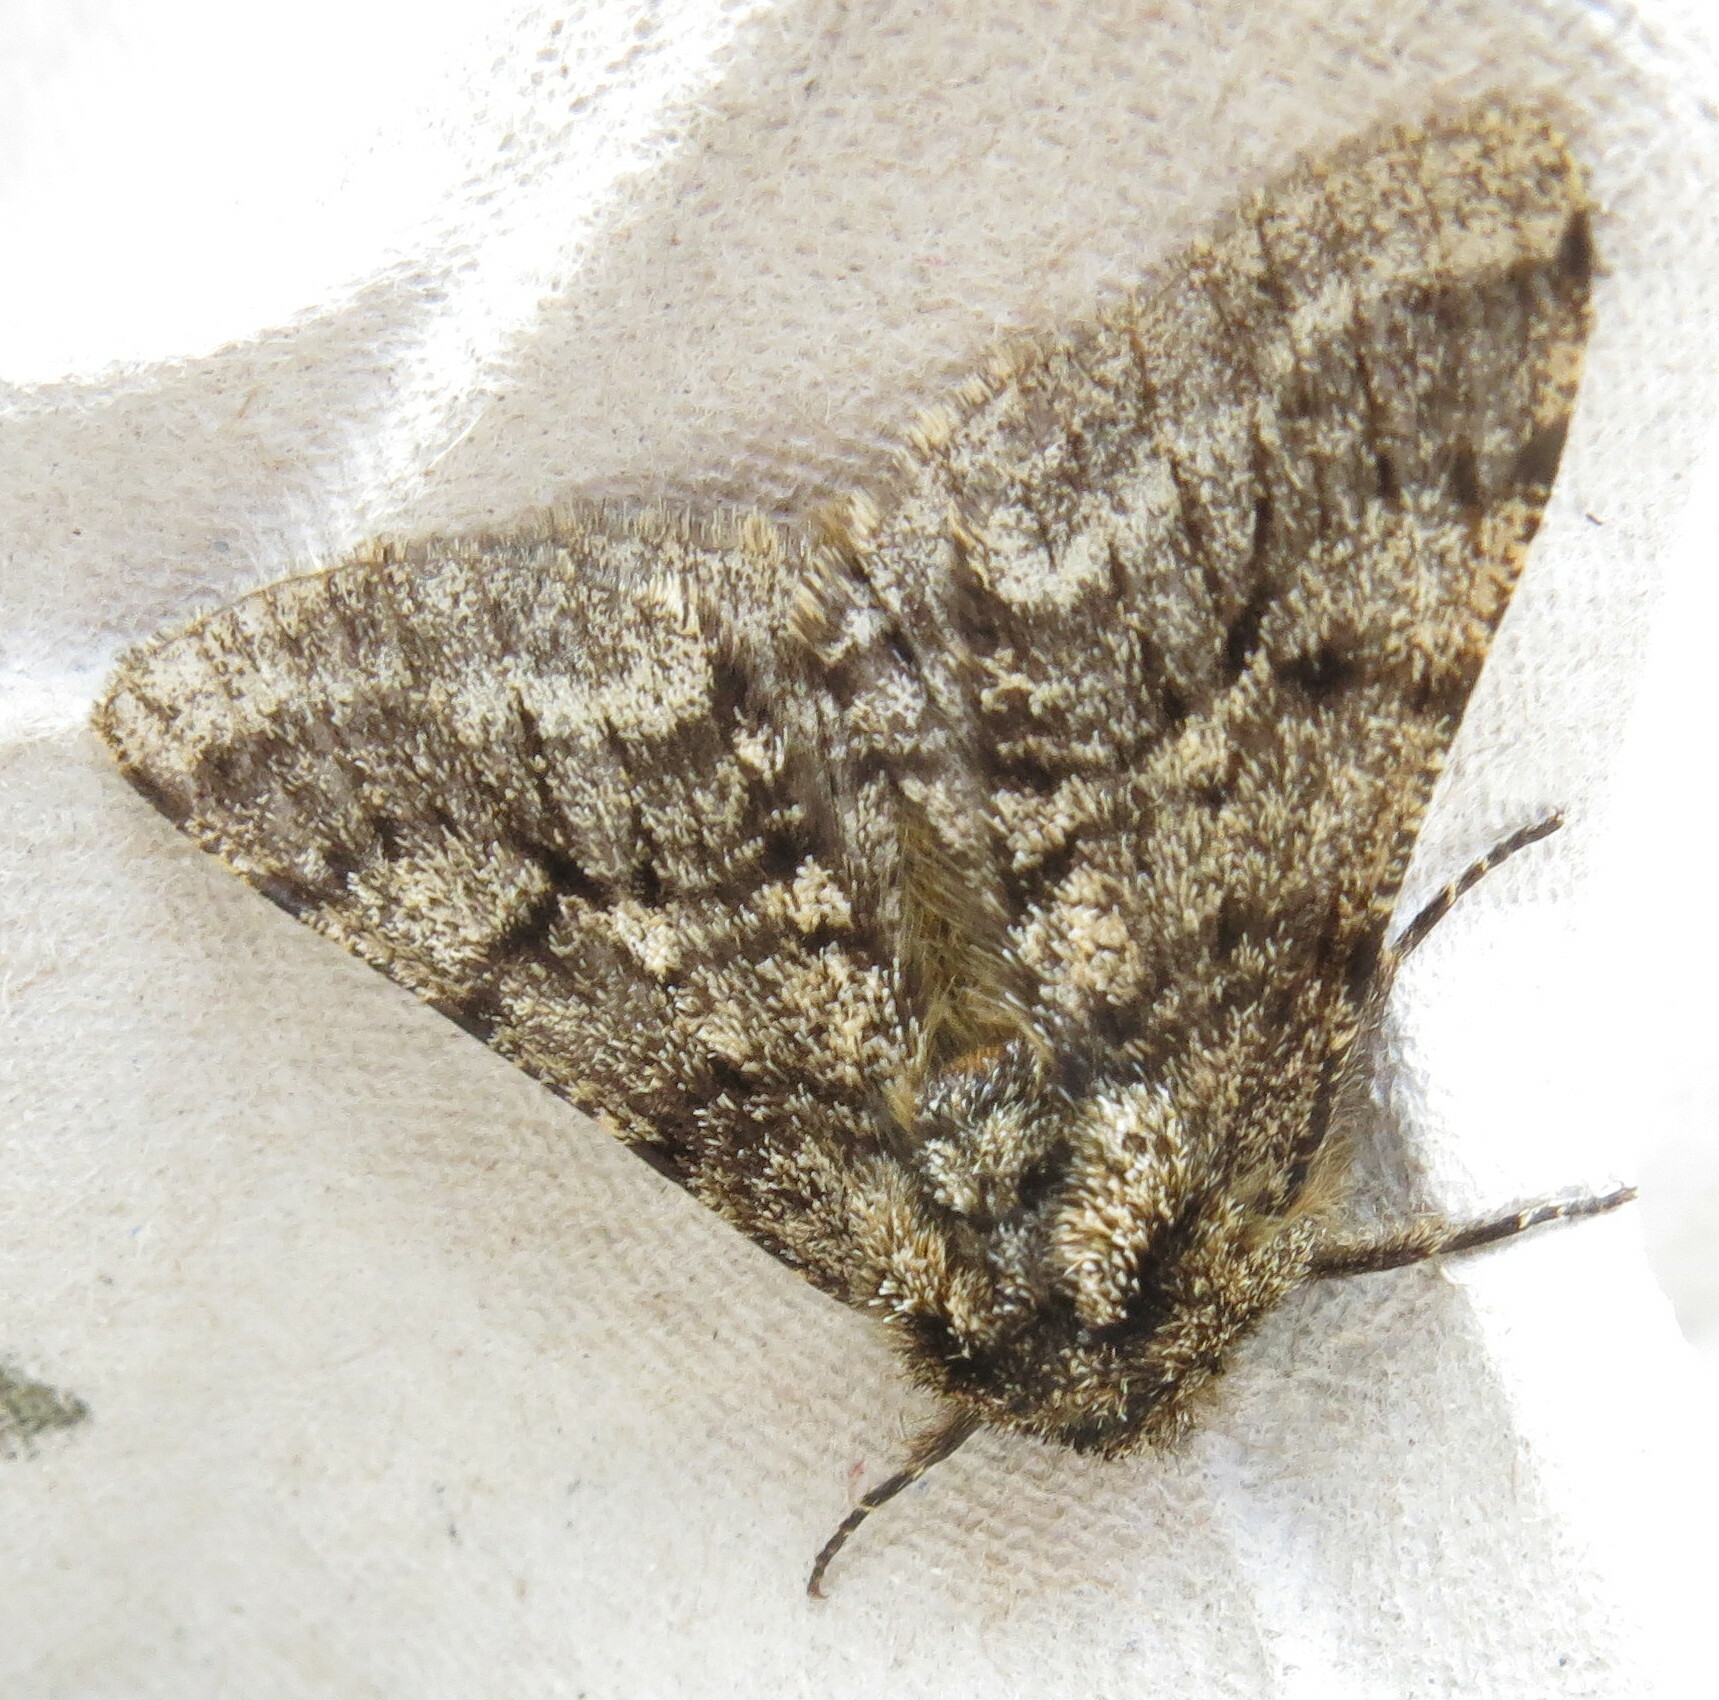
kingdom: Animalia
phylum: Arthropoda
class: Insecta
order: Lepidoptera
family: Geometridae
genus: Lycia
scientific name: Lycia hirtaria
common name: Brindled beauty
